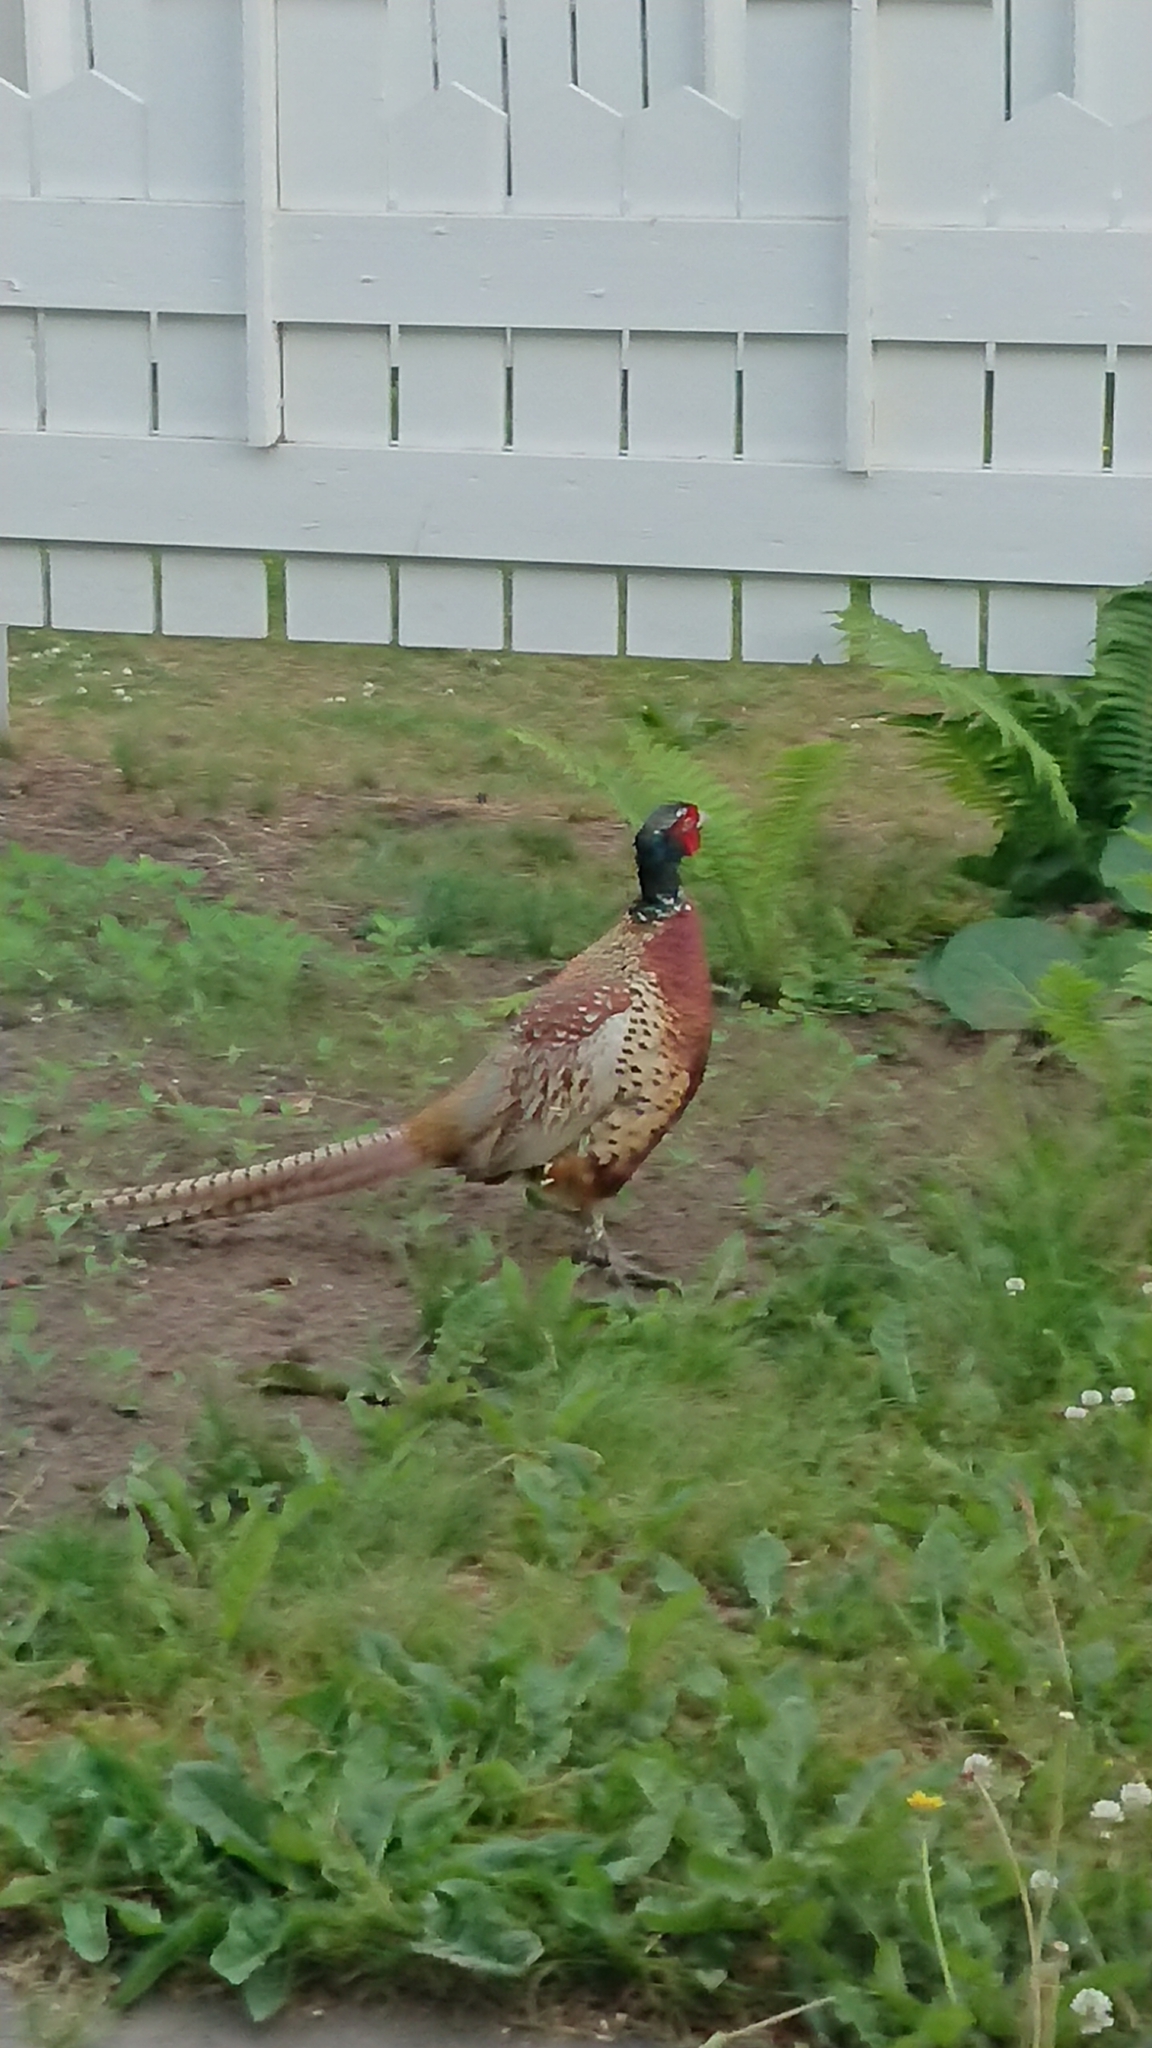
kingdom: Animalia
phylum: Chordata
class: Aves
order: Galliformes
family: Phasianidae
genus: Phasianus
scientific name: Phasianus colchicus
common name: Common pheasant
